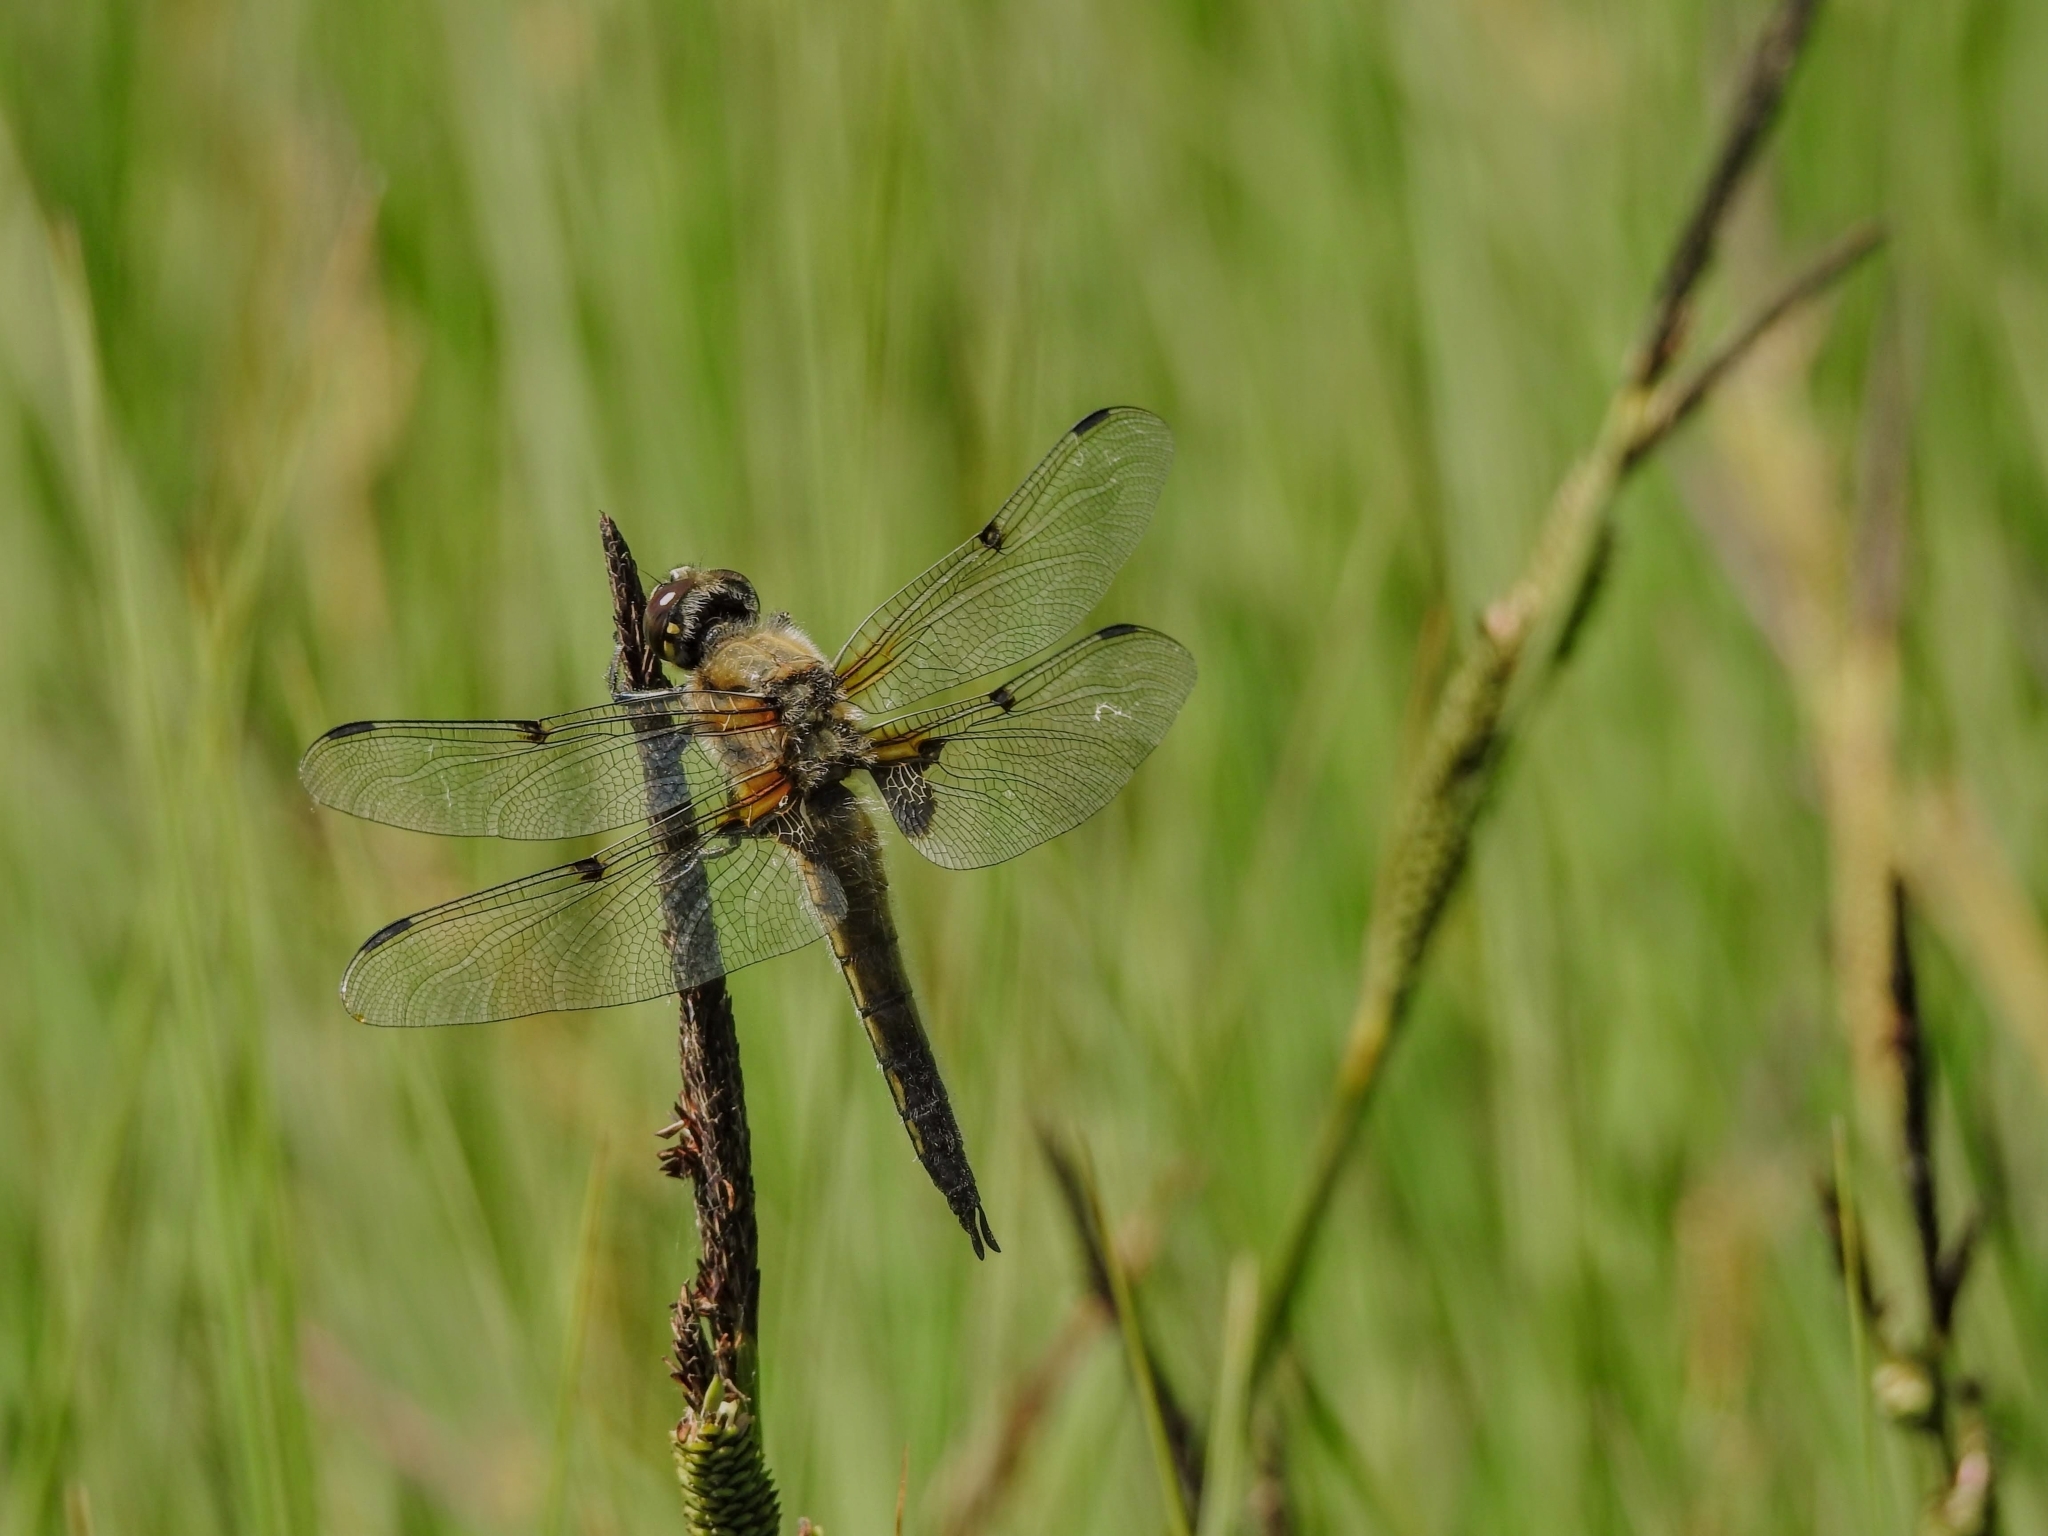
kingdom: Animalia
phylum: Arthropoda
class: Insecta
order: Odonata
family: Libellulidae
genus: Libellula
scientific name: Libellula quadrimaculata
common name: Four-spotted chaser
